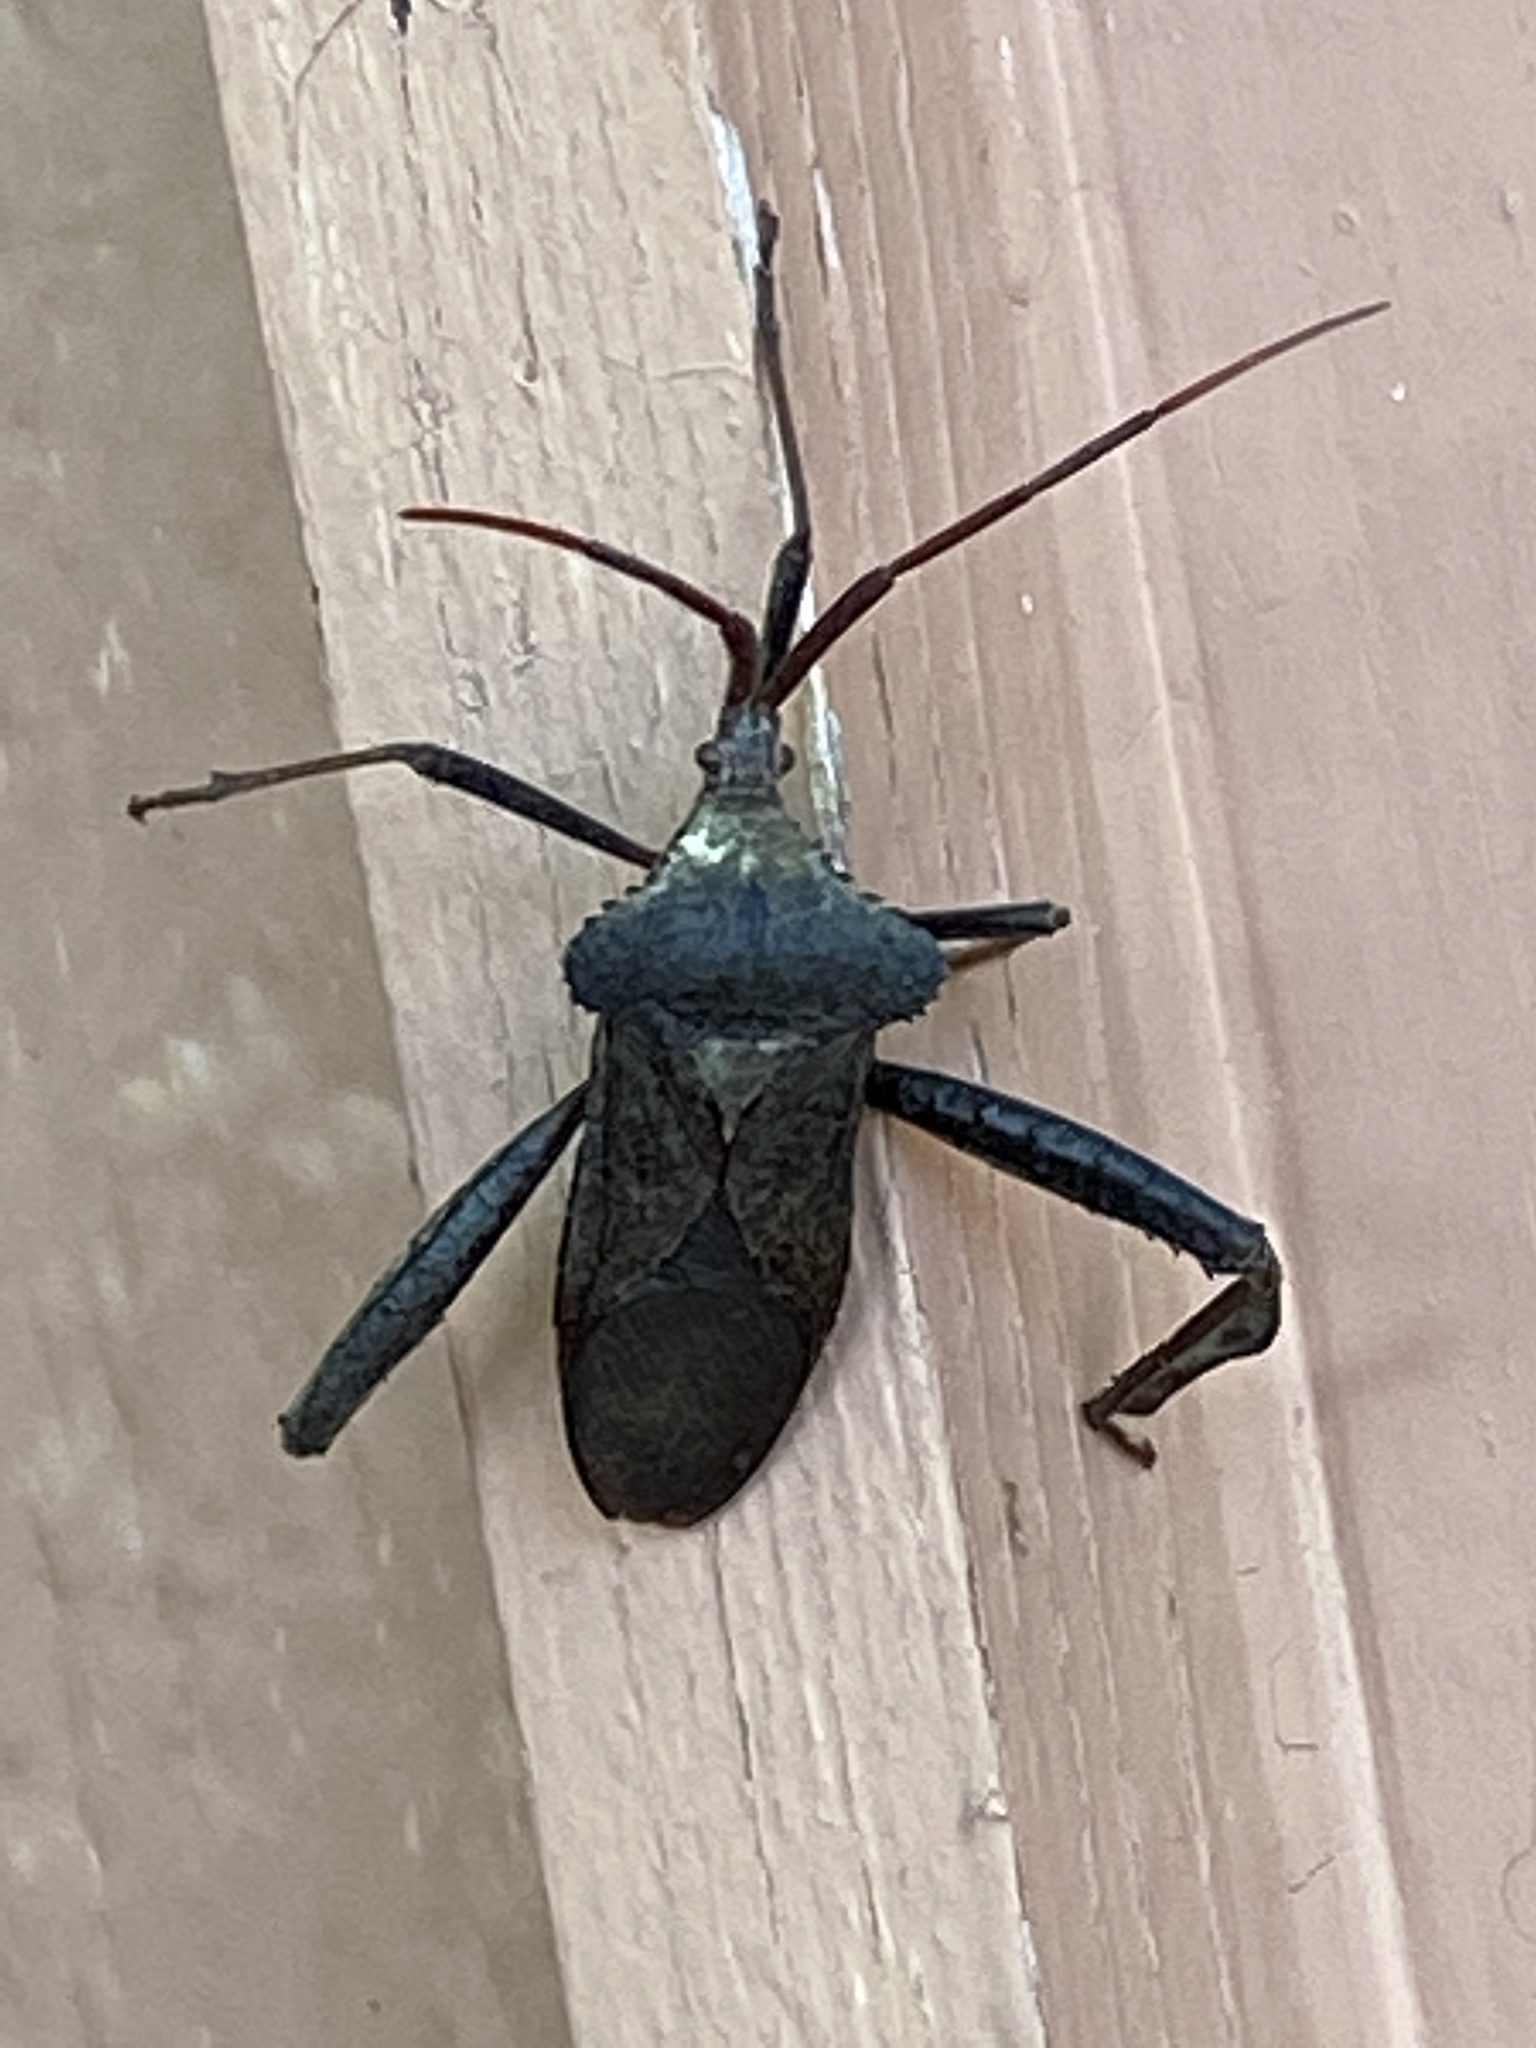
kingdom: Animalia
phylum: Arthropoda
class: Insecta
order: Hemiptera
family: Coreidae
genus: Acanthocephala
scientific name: Acanthocephala declivis
